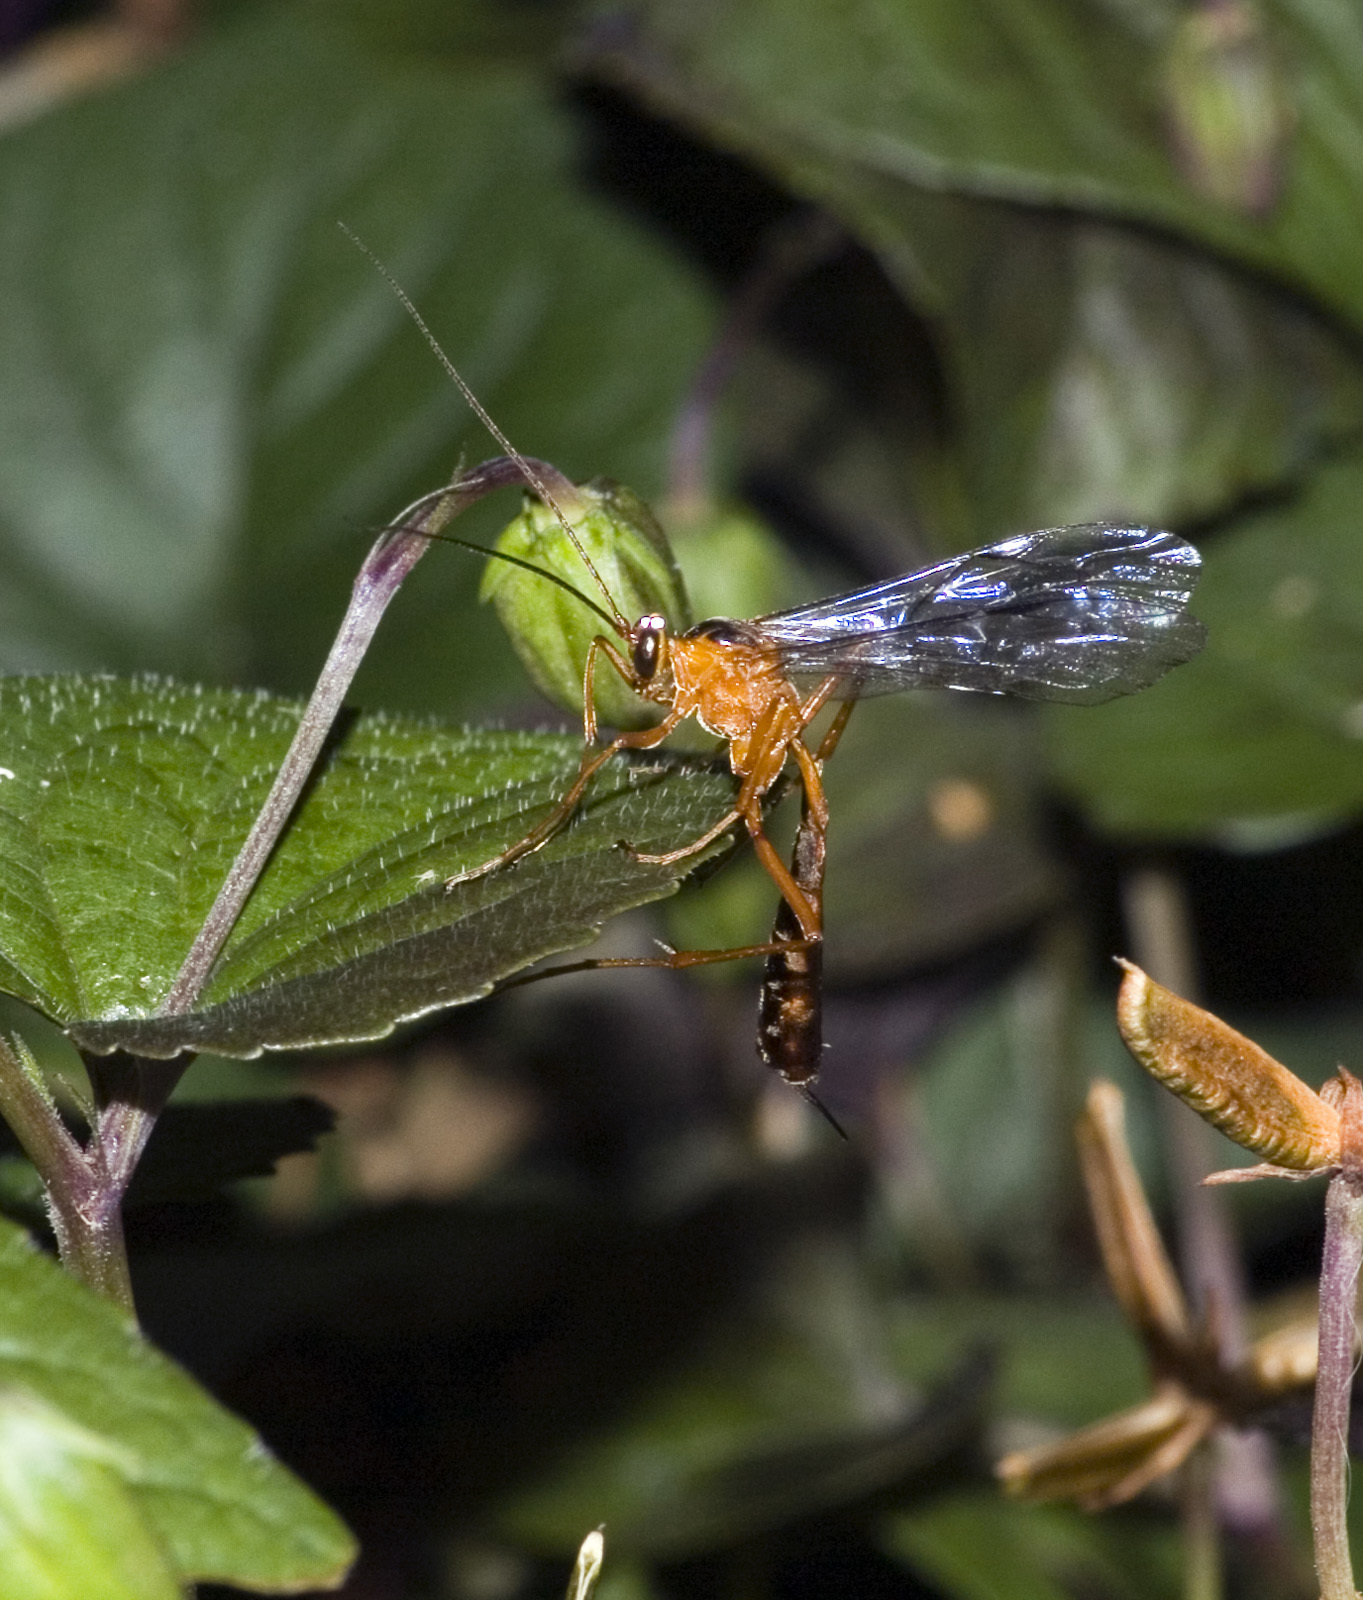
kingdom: Animalia
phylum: Arthropoda
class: Insecta
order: Hymenoptera
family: Ichneumonidae
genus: Netelia
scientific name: Netelia ephippiata
